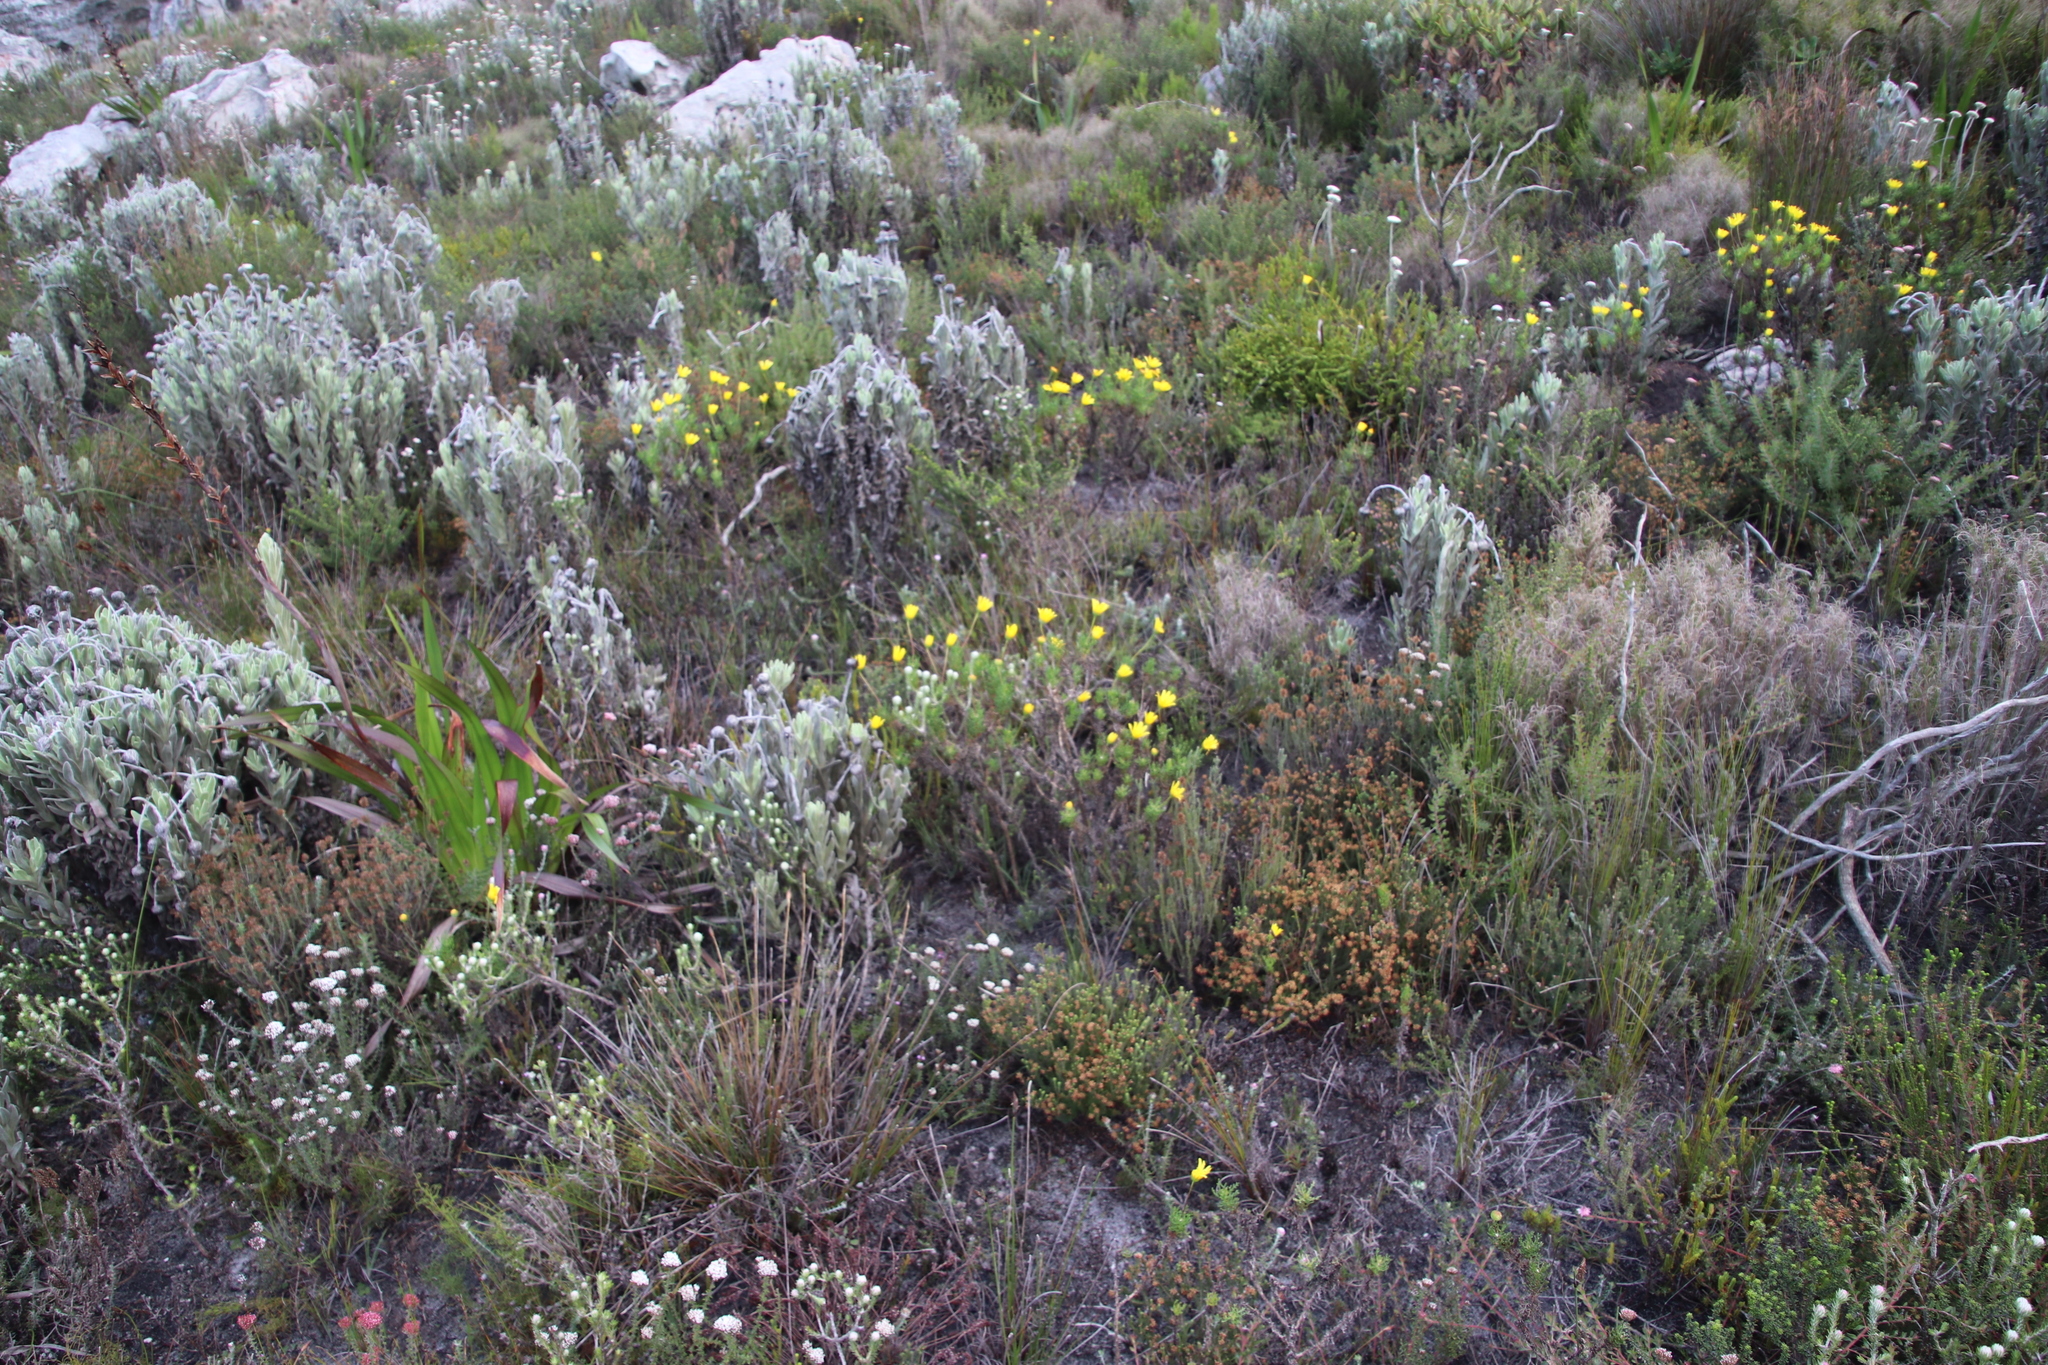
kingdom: Plantae
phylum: Tracheophyta
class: Magnoliopsida
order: Asterales
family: Asteraceae
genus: Euryops
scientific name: Euryops abrotanifolius
